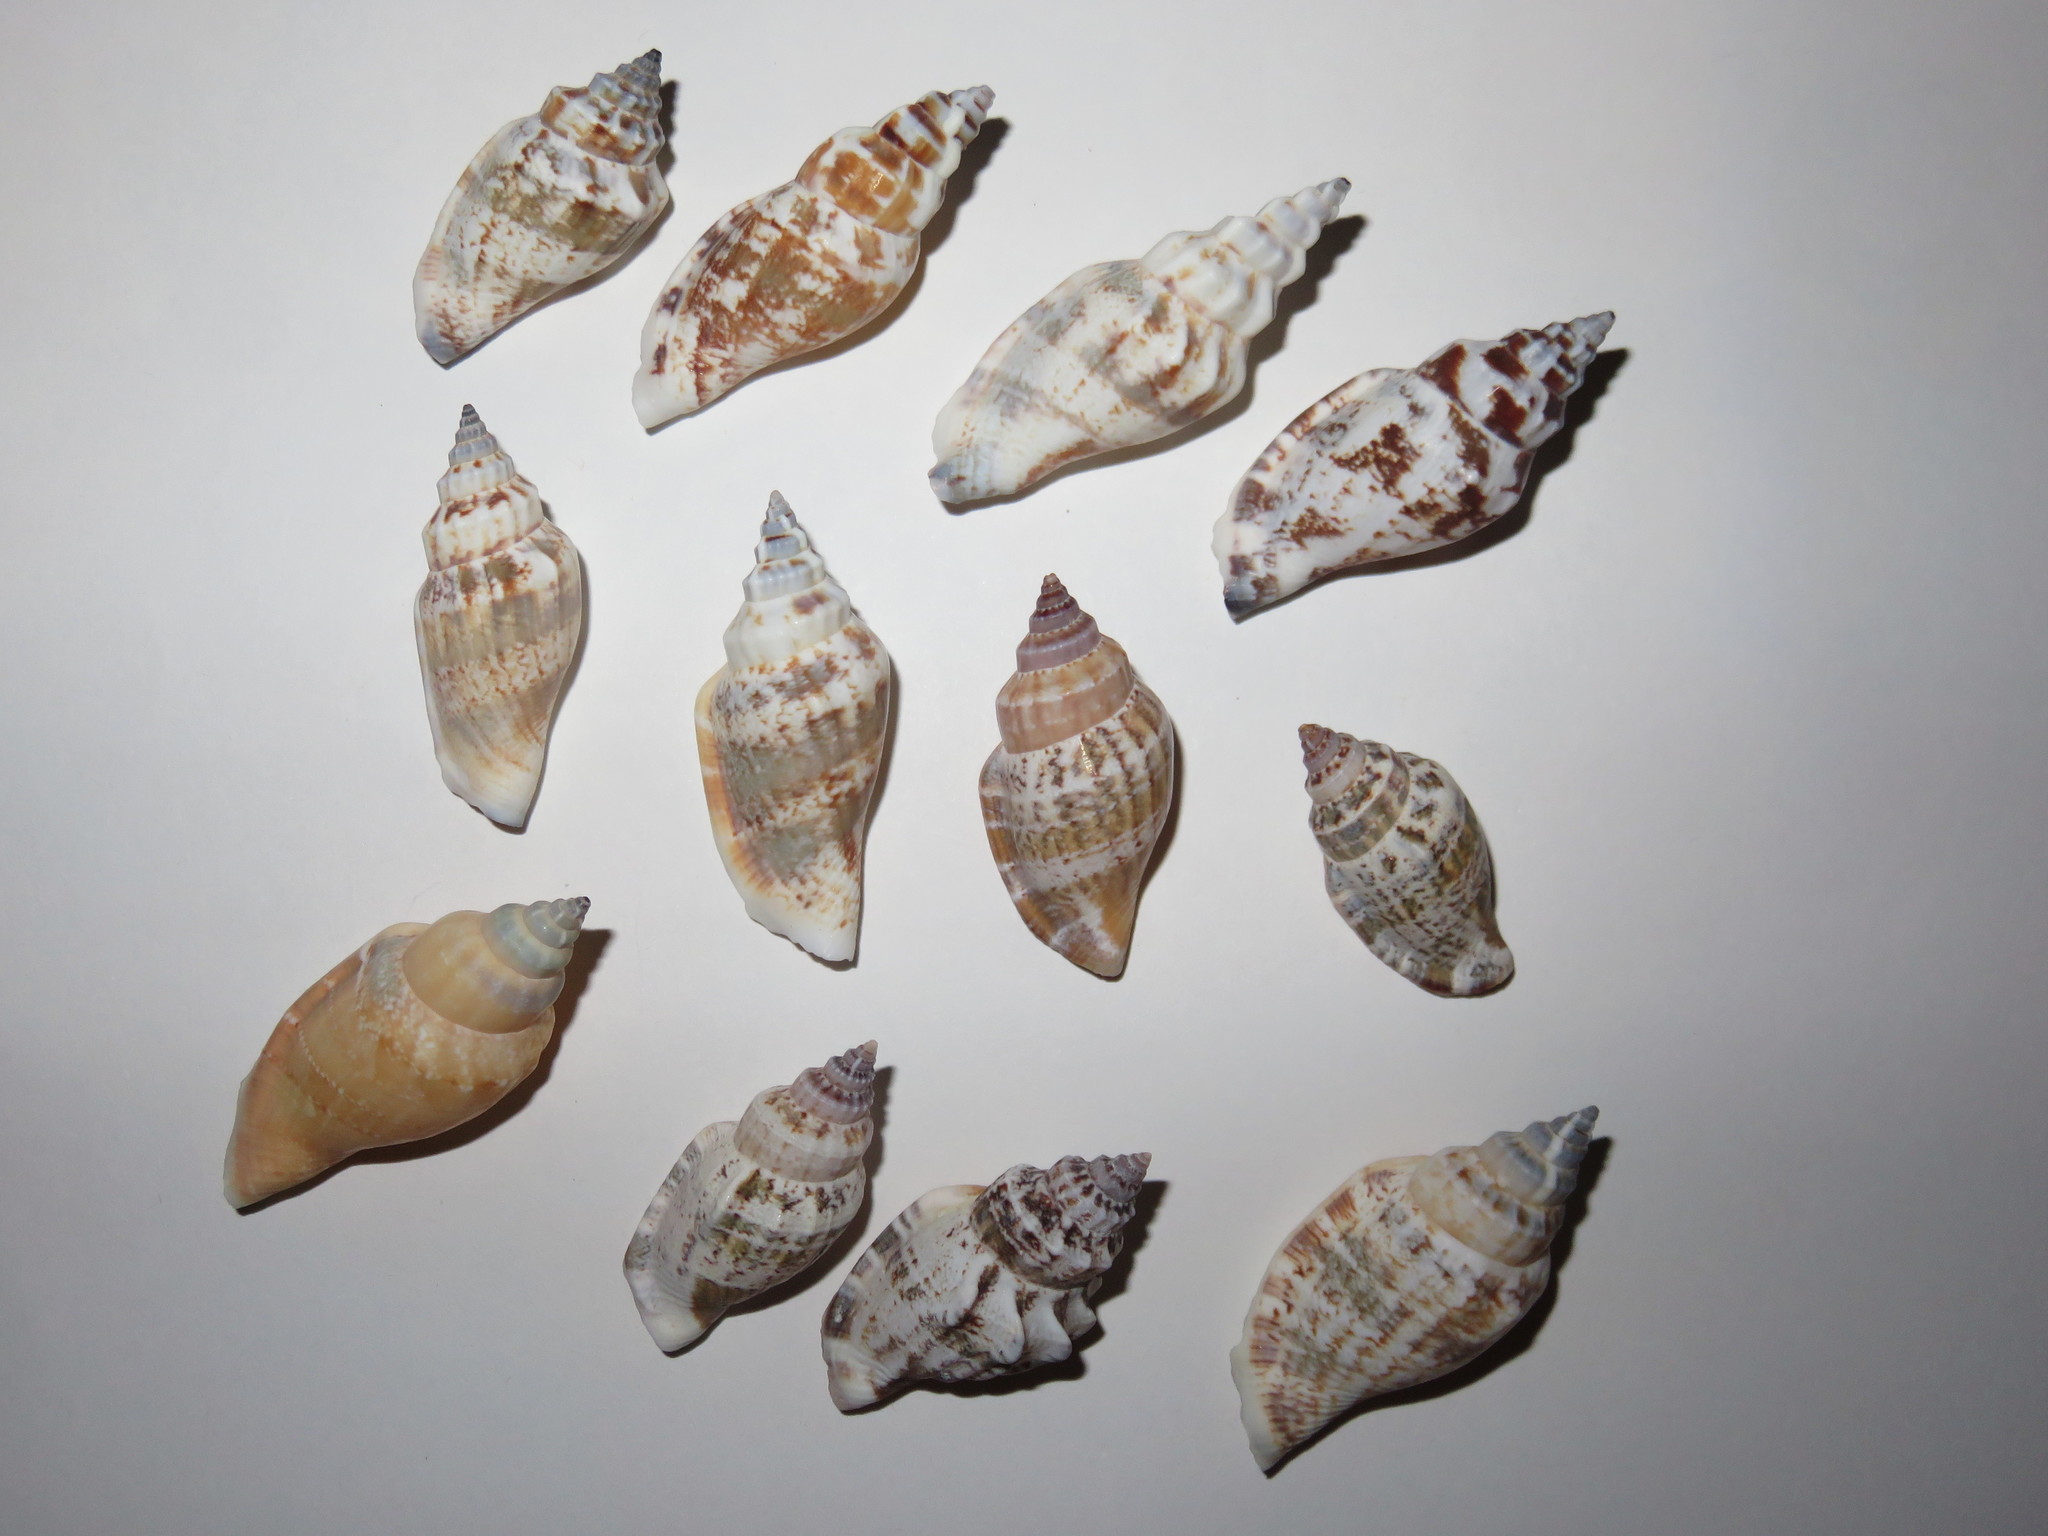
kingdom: Animalia
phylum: Mollusca
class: Gastropoda
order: Littorinimorpha
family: Strombidae
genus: Canarium
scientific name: Canarium urceus
